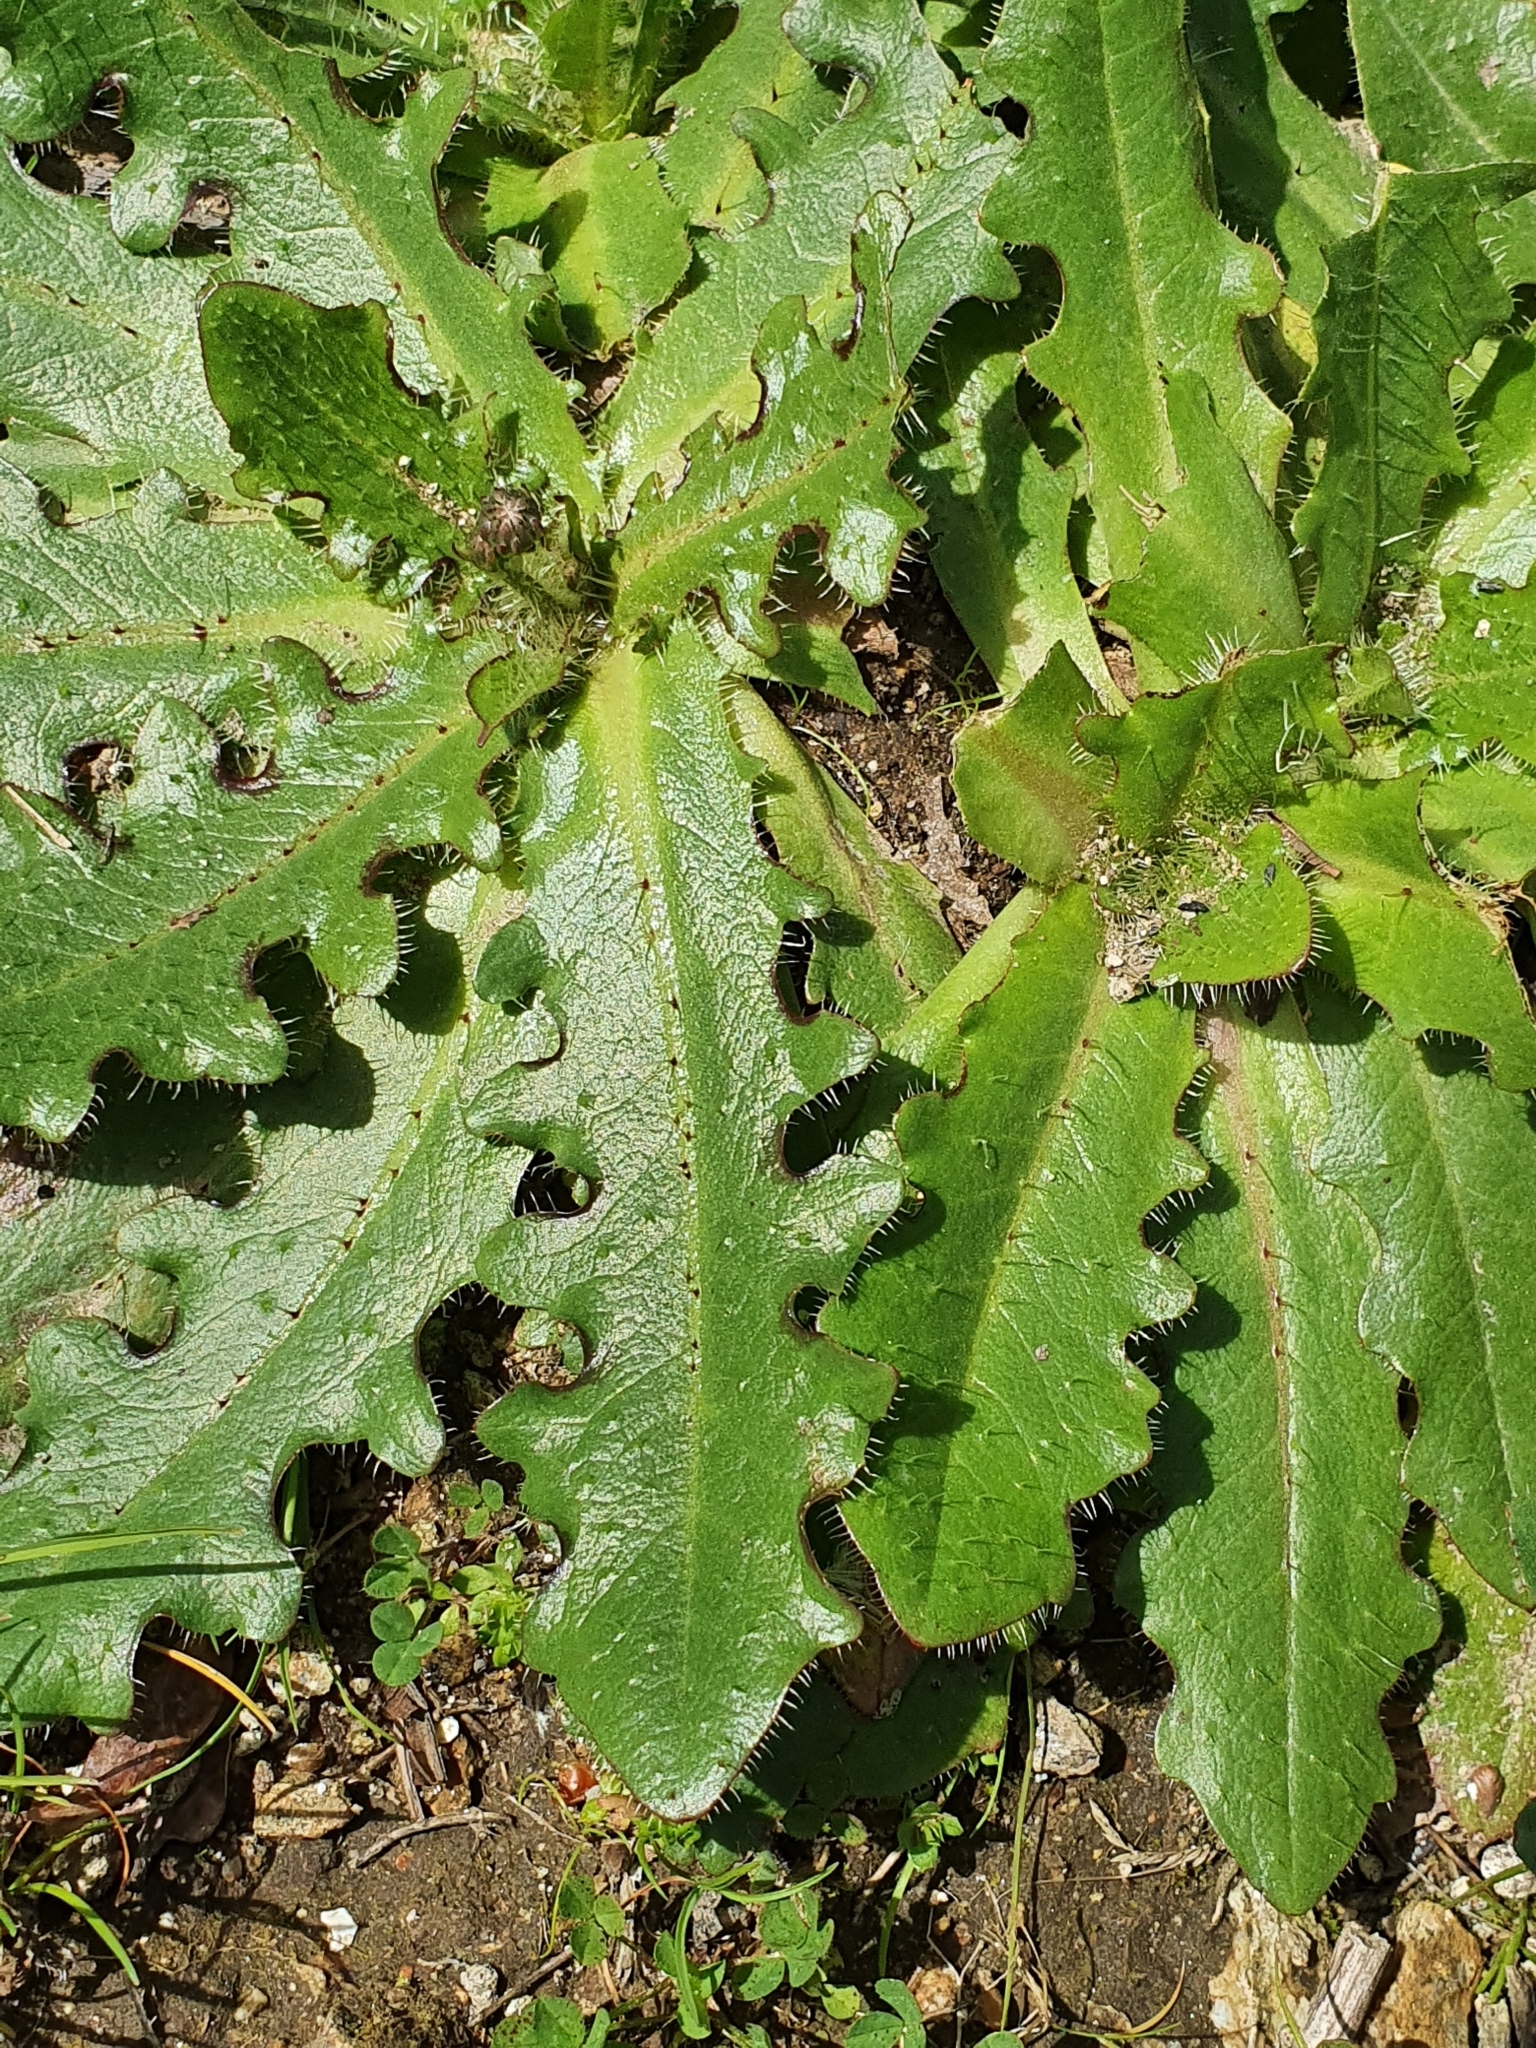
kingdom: Plantae
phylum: Tracheophyta
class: Magnoliopsida
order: Asterales
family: Asteraceae
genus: Hypochaeris
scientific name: Hypochaeris radicata
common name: Flatweed
